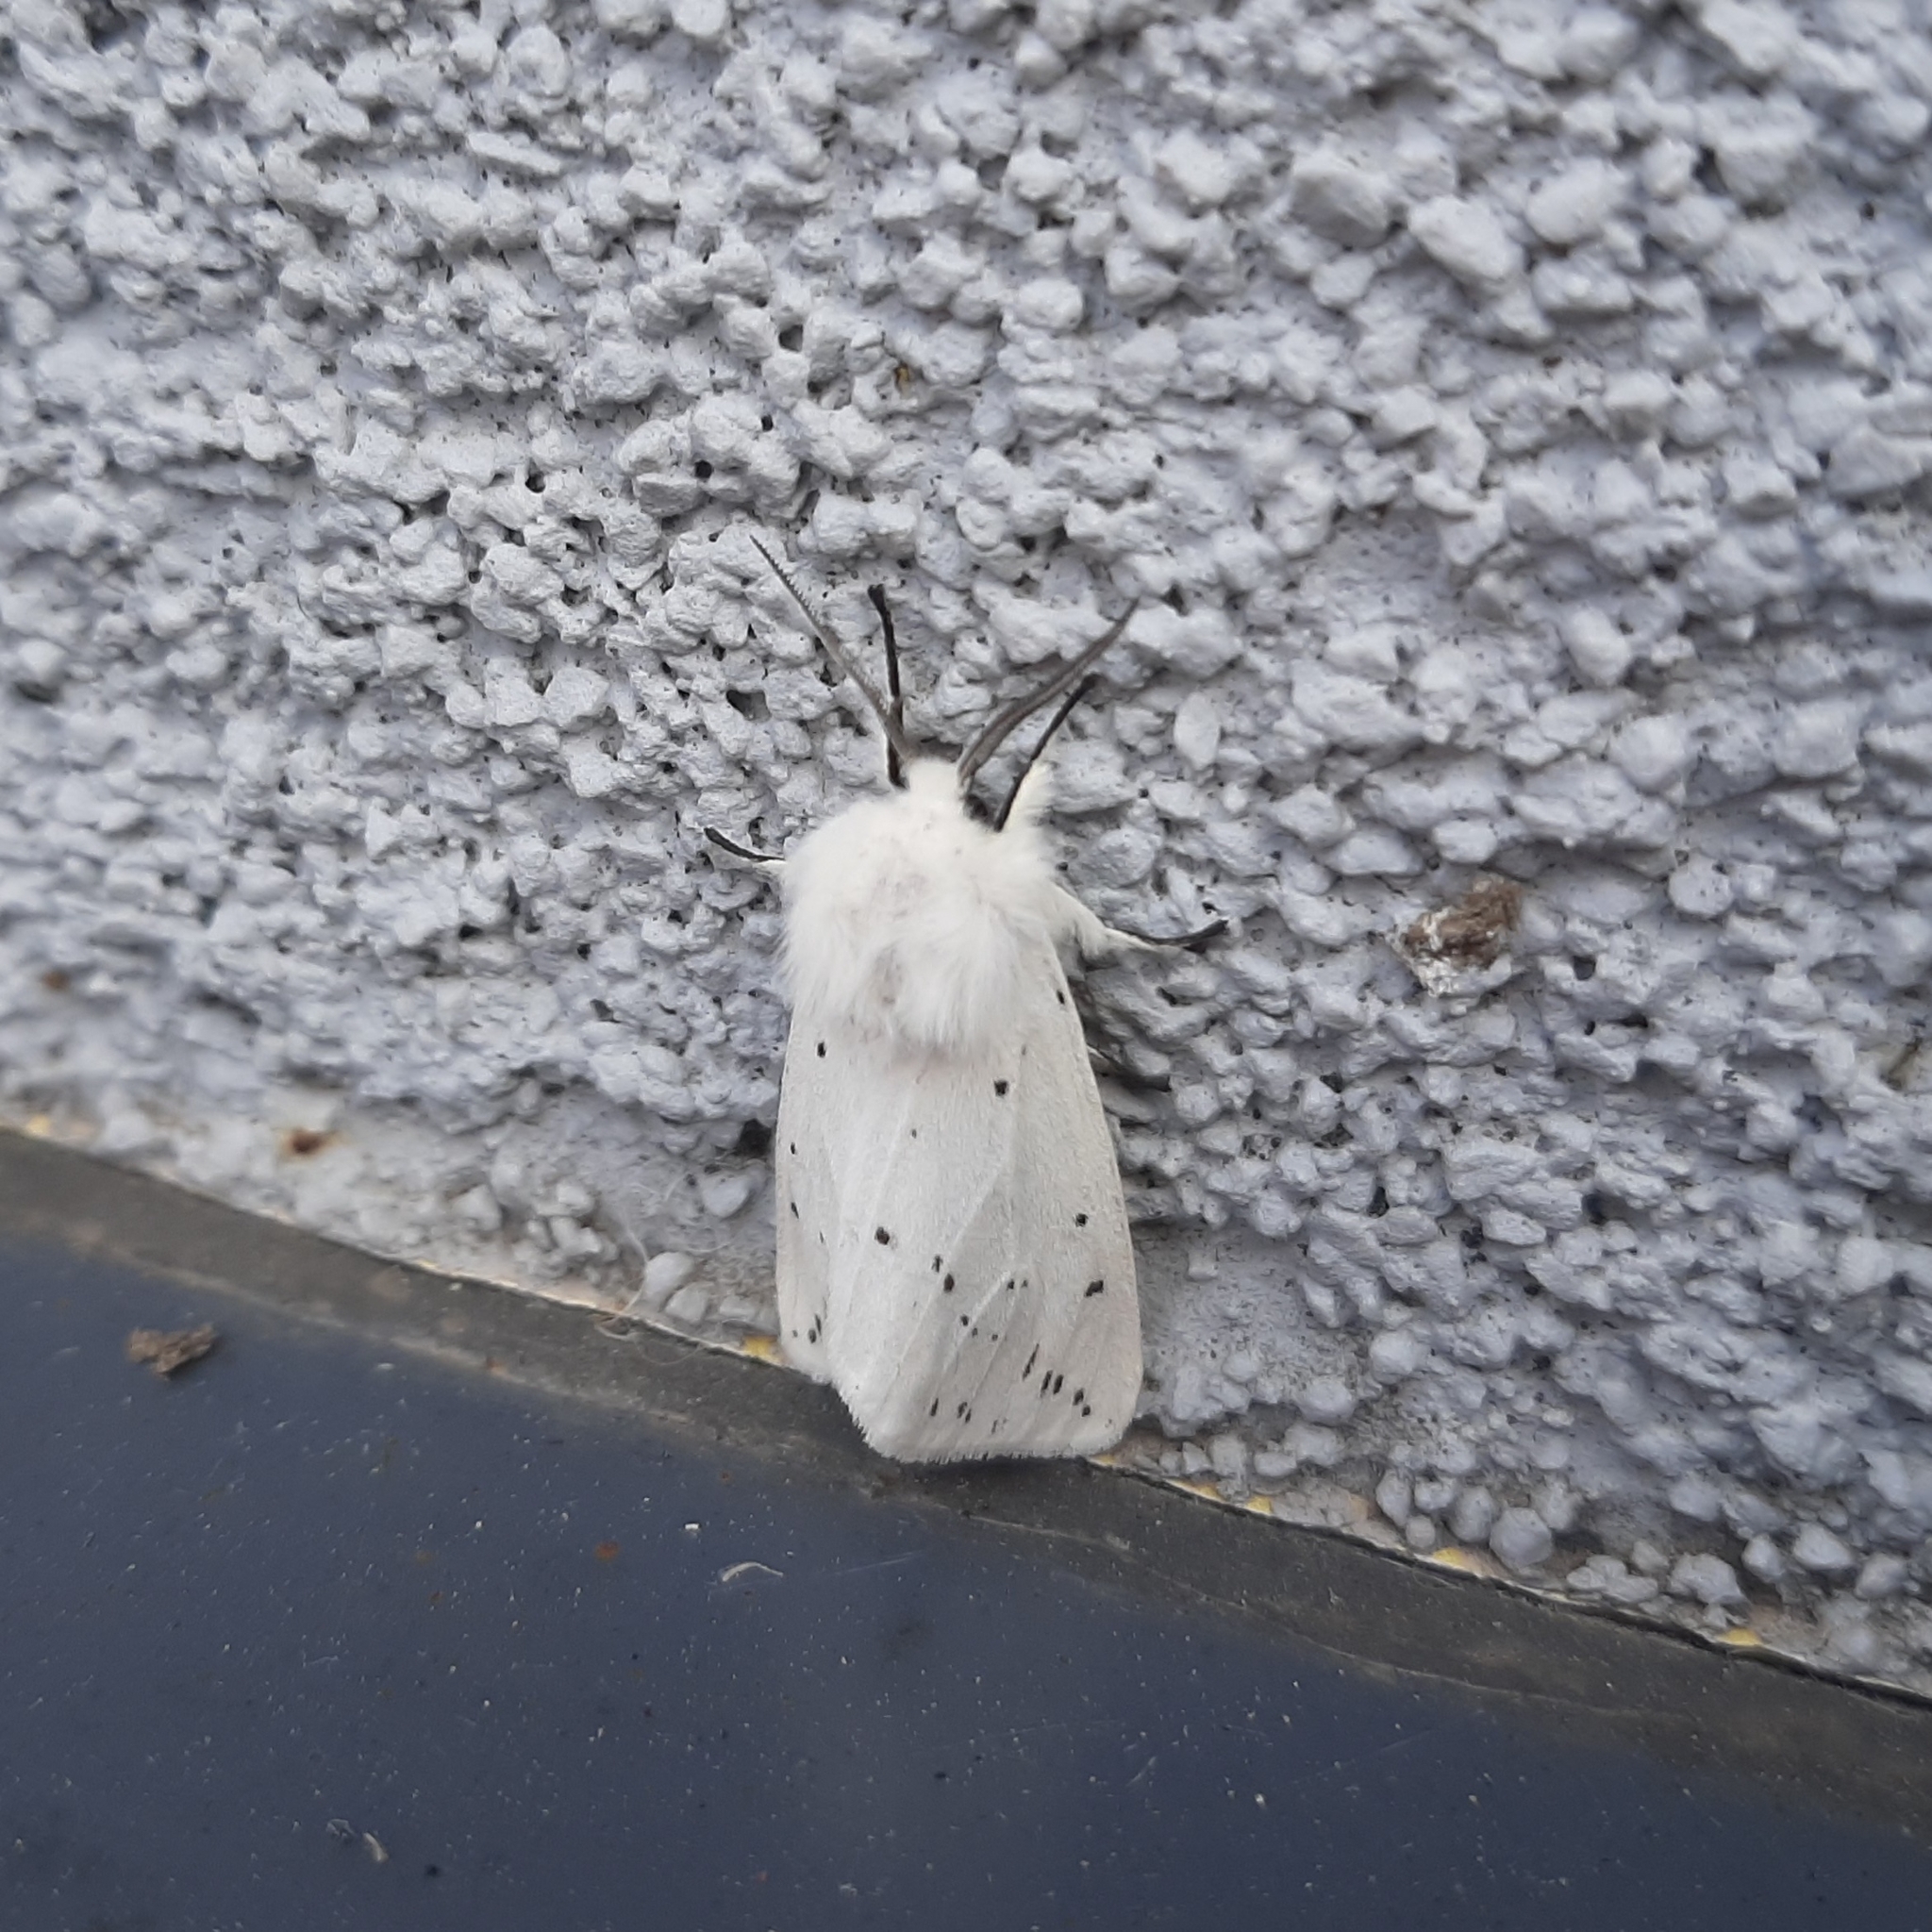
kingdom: Animalia
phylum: Arthropoda
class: Insecta
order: Lepidoptera
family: Erebidae
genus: Spilosoma
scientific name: Spilosoma lubricipeda
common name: White ermine
